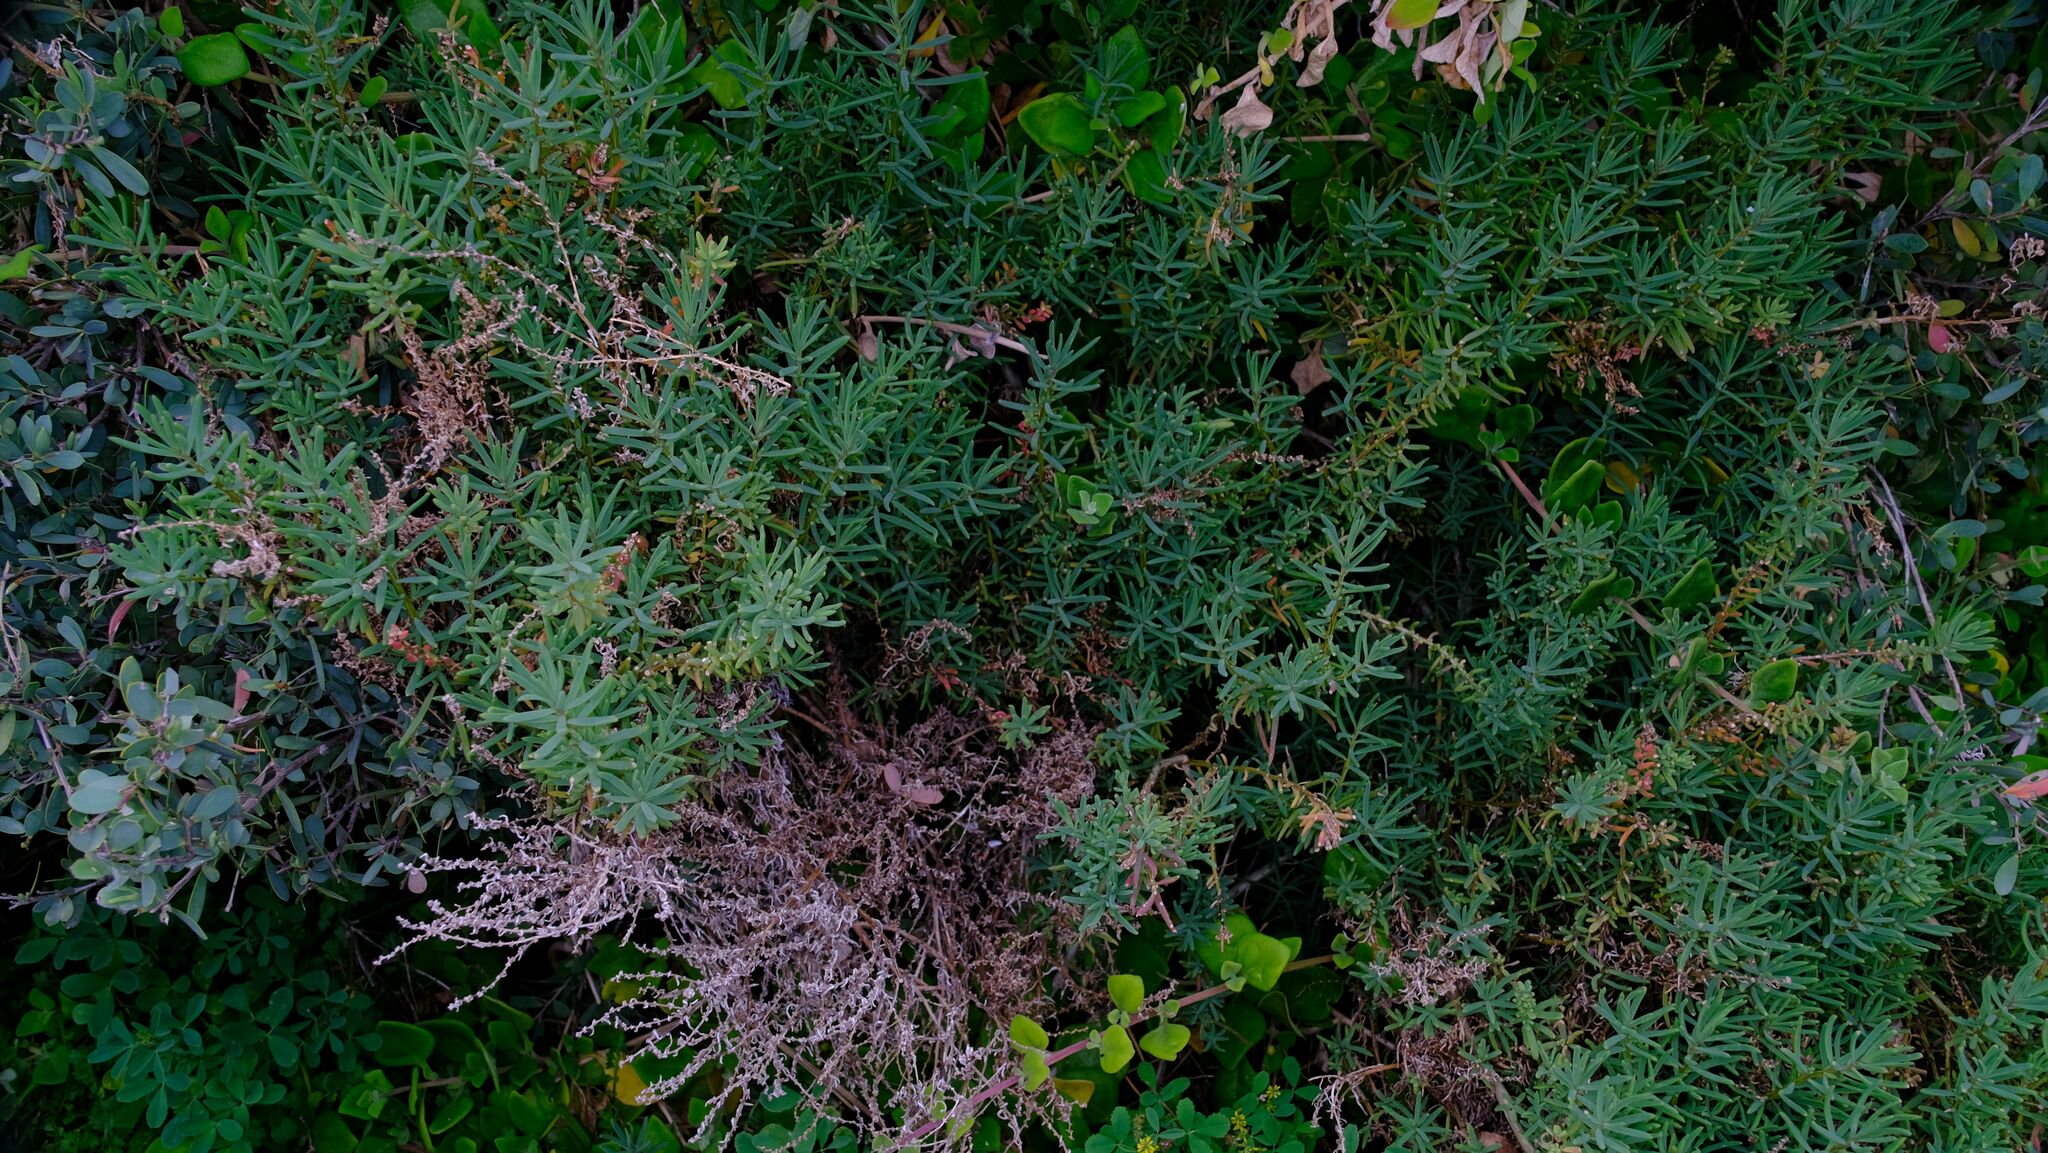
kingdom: Plantae
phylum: Tracheophyta
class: Magnoliopsida
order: Caryophyllales
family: Amaranthaceae
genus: Suaeda
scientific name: Suaeda australis
